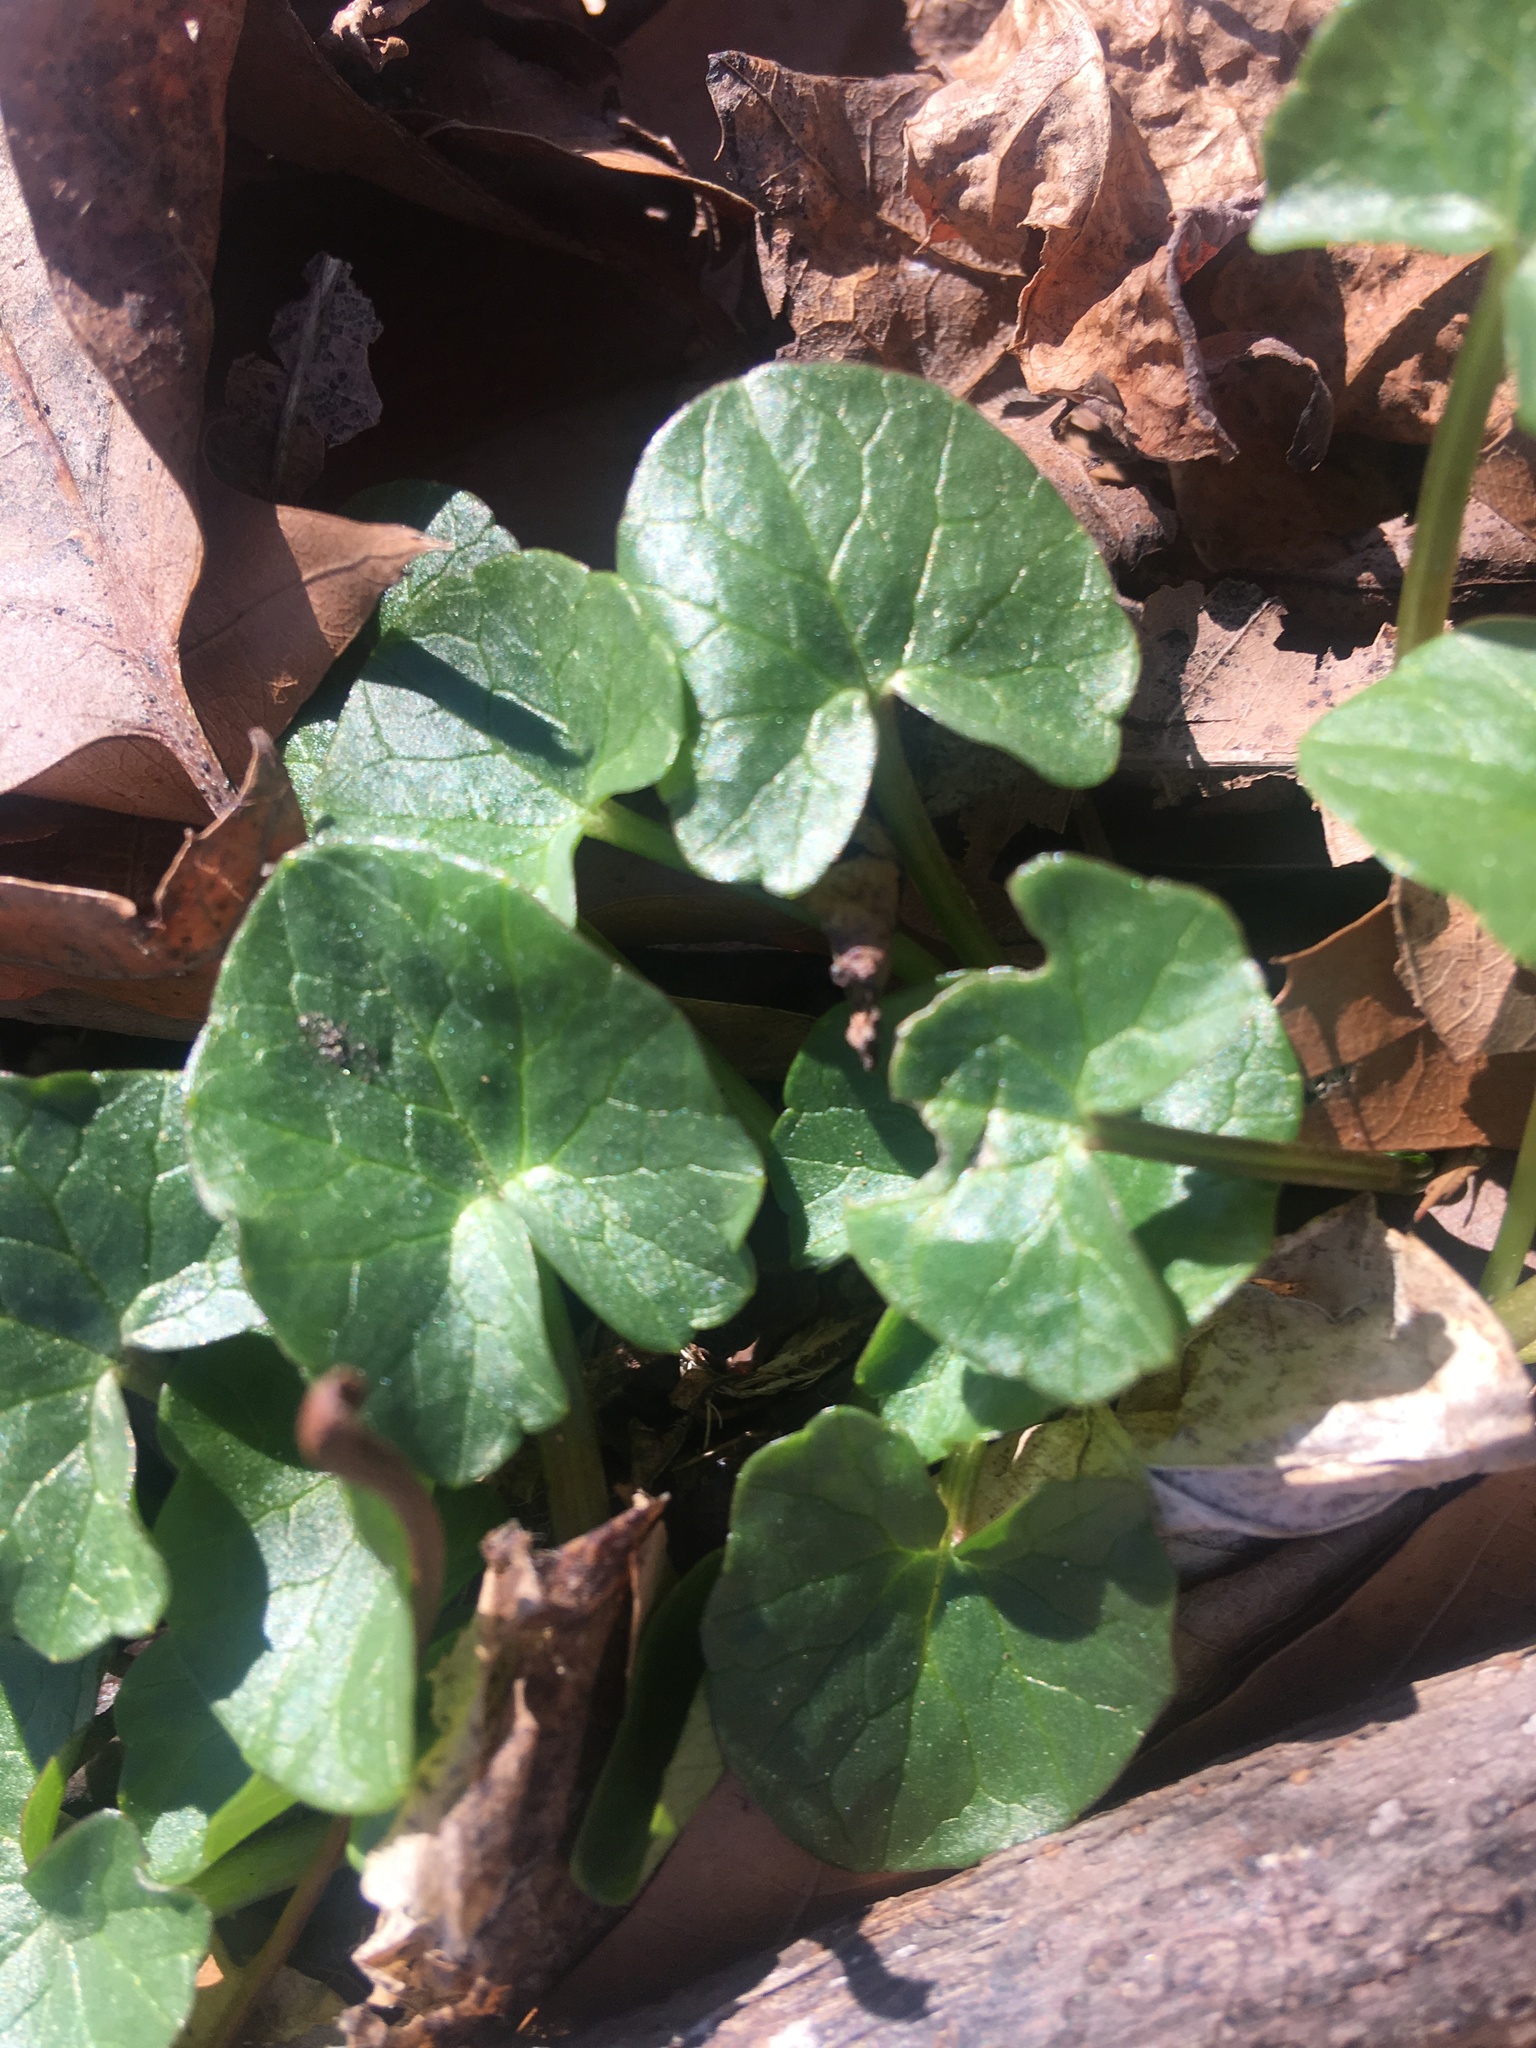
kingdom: Plantae
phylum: Tracheophyta
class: Magnoliopsida
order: Ranunculales
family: Ranunculaceae
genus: Ficaria
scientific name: Ficaria verna
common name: Lesser celandine
